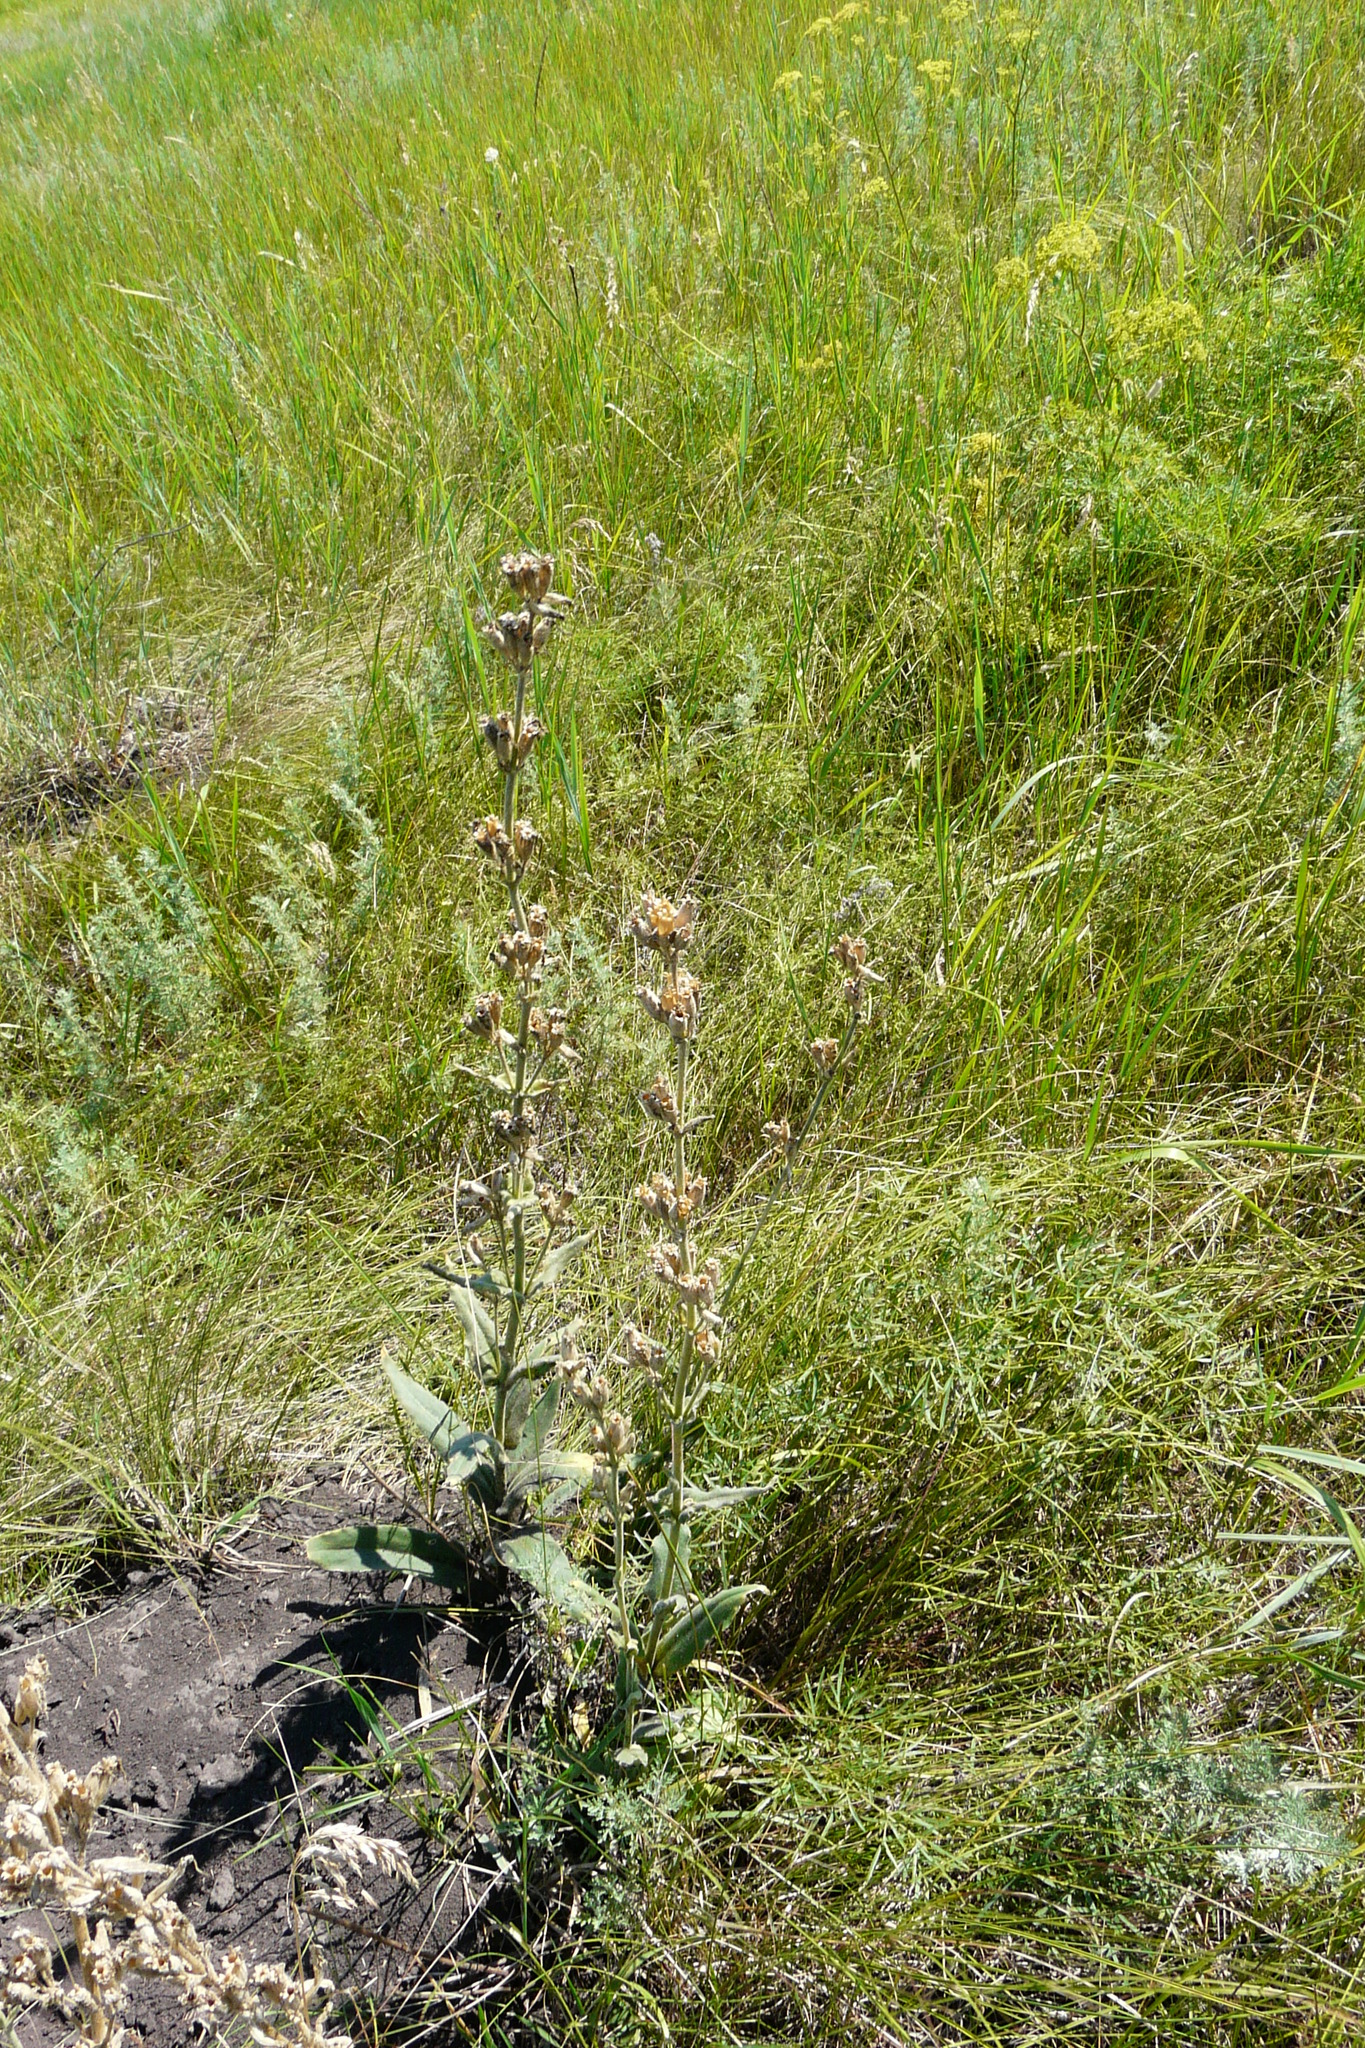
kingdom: Plantae
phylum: Tracheophyta
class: Magnoliopsida
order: Caryophyllales
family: Caryophyllaceae
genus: Silene
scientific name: Silene viscosa
